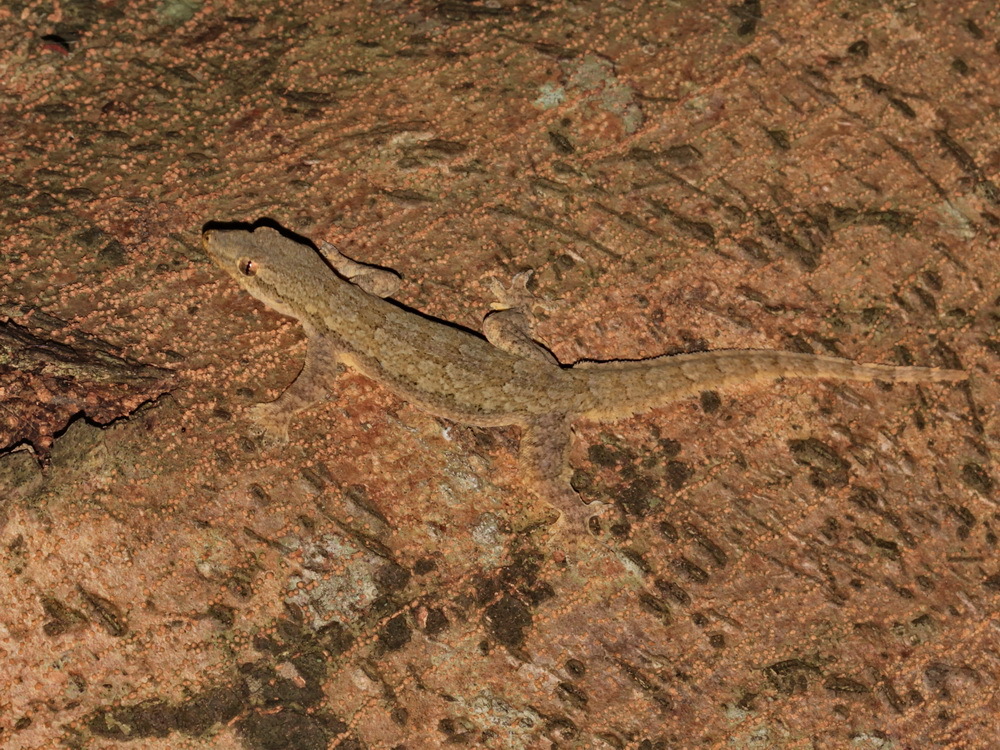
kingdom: Animalia
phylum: Chordata
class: Squamata
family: Gekkonidae
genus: Hemidactylus
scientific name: Hemidactylus platyurus
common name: Flat-tailed house gecko
